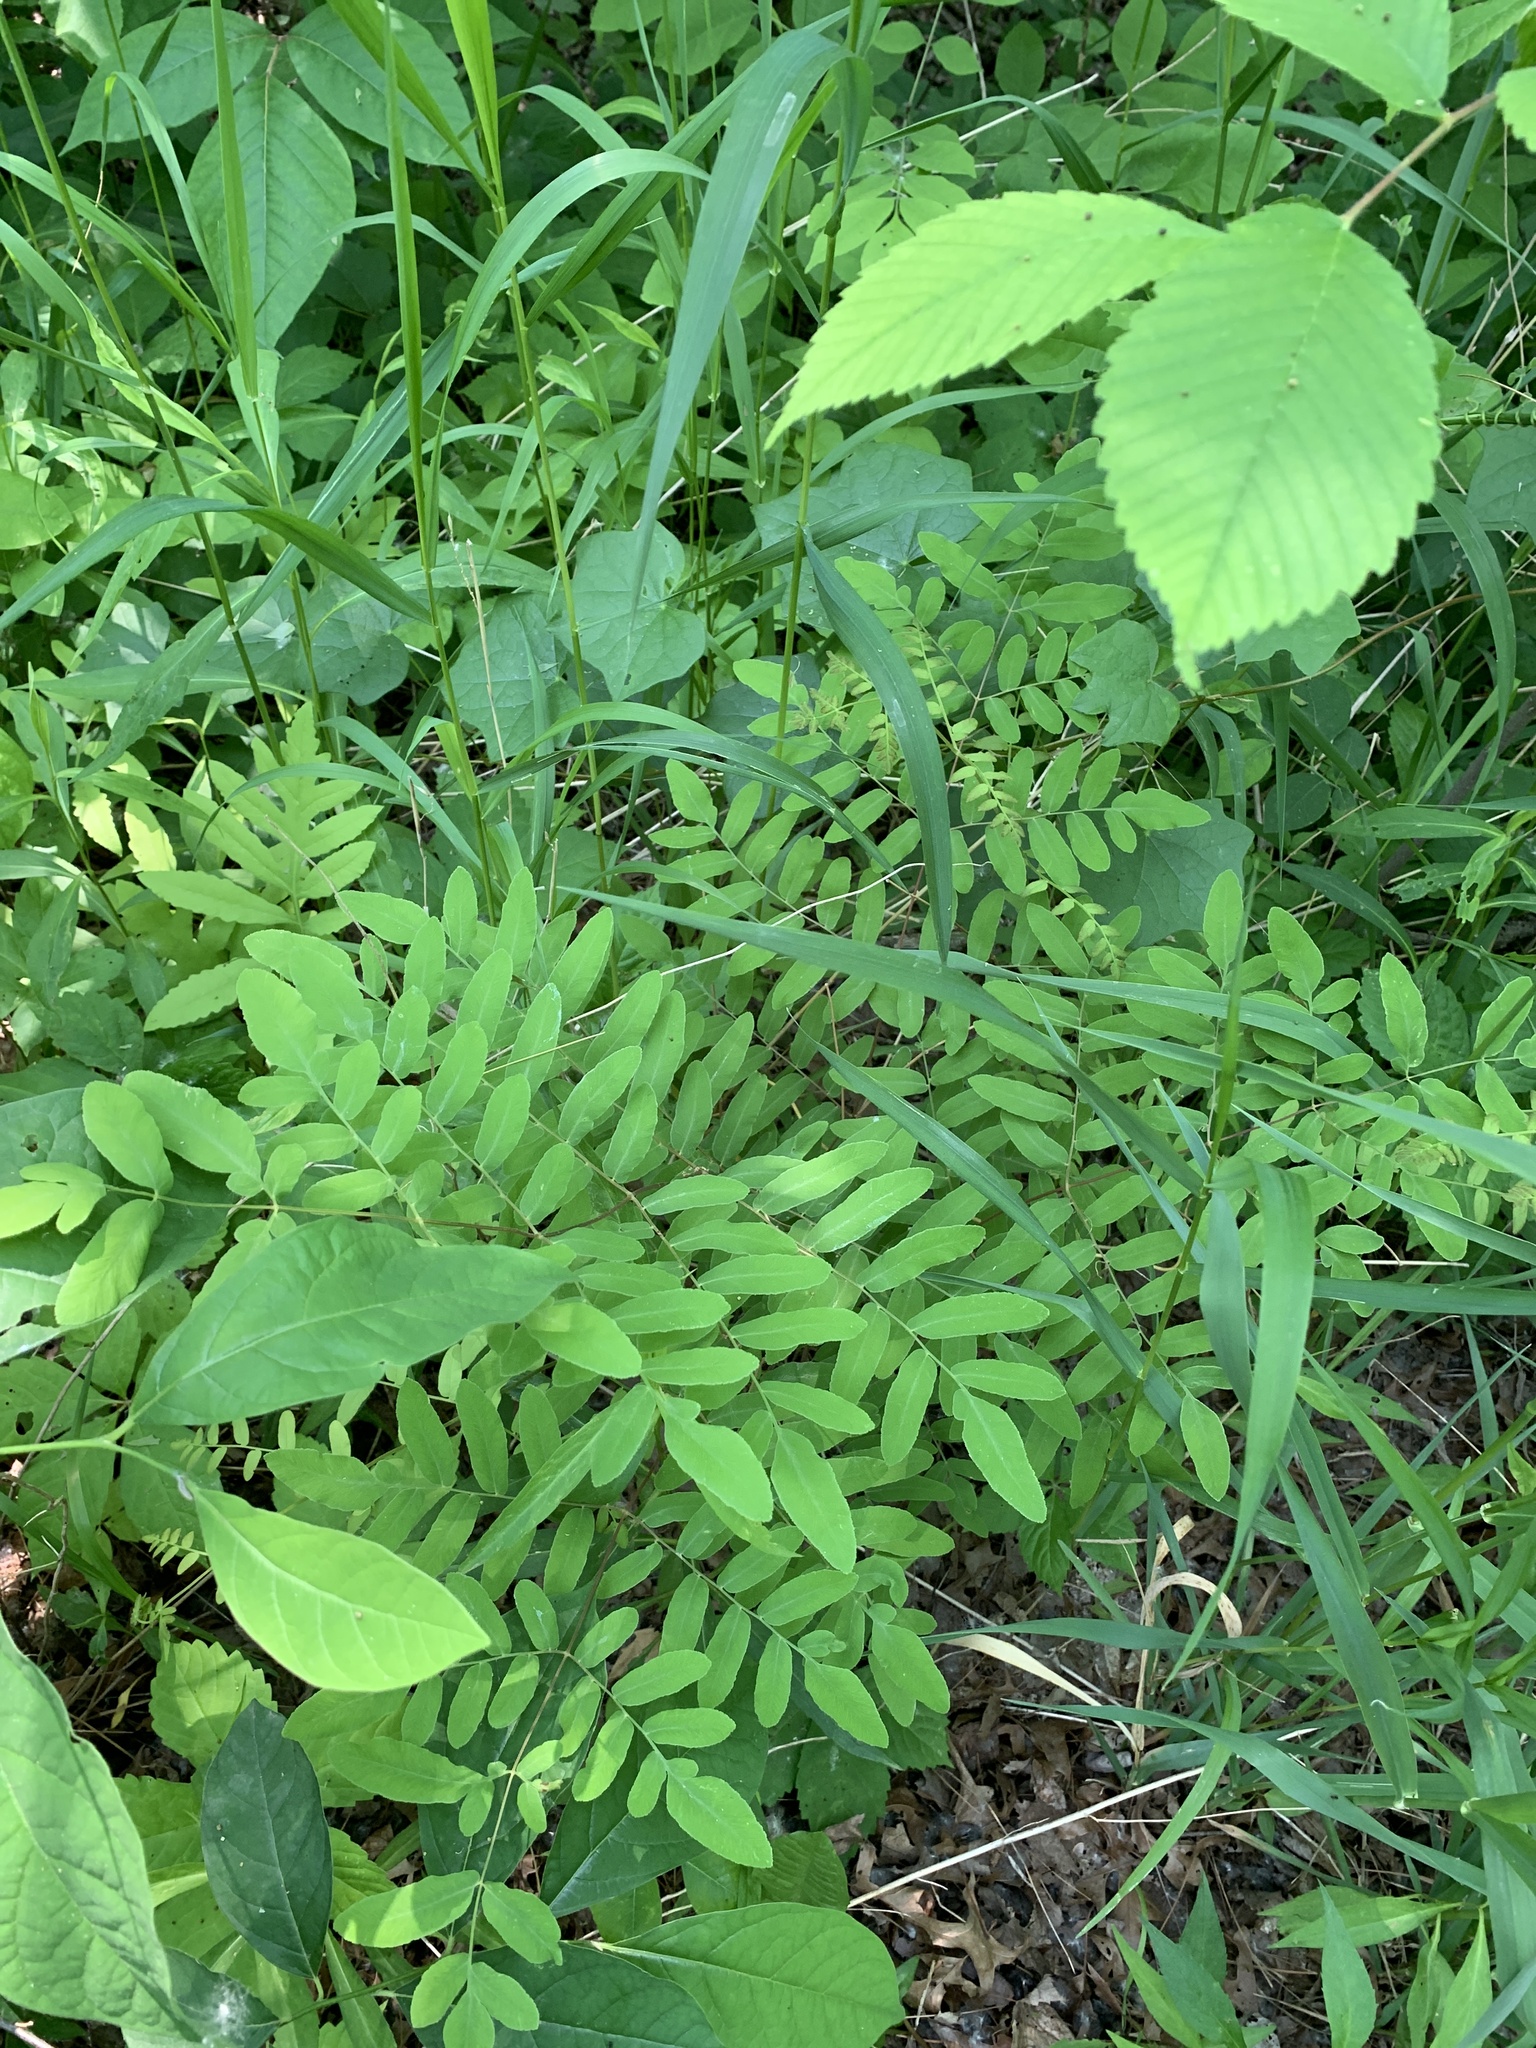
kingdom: Plantae
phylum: Tracheophyta
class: Polypodiopsida
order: Osmundales
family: Osmundaceae
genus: Osmunda
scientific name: Osmunda spectabilis
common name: American royal fern
